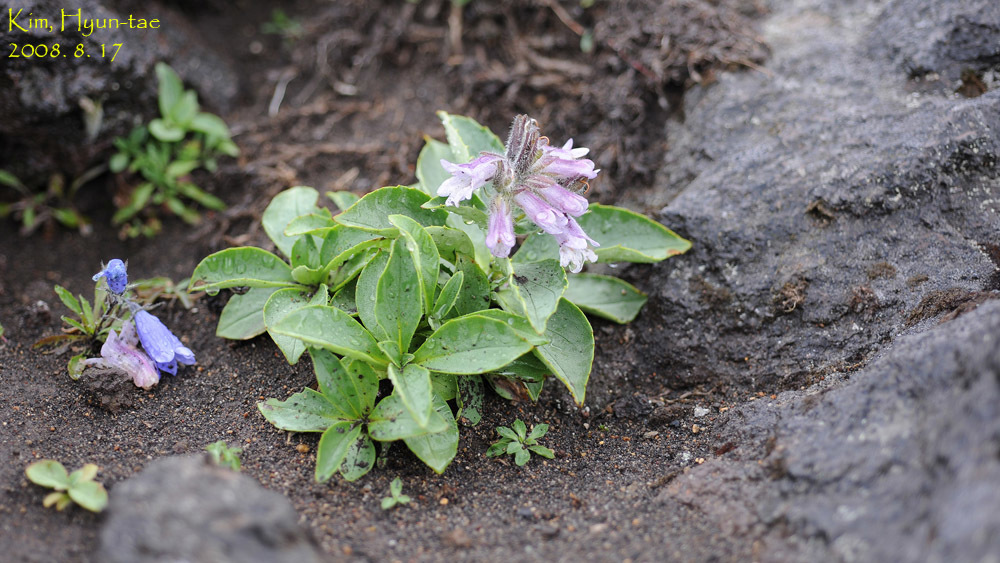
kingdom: Plantae
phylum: Tracheophyta
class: Magnoliopsida
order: Asterales
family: Campanulaceae
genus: Campanula
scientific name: Campanula lasiocarpa
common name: Mountain harebell
